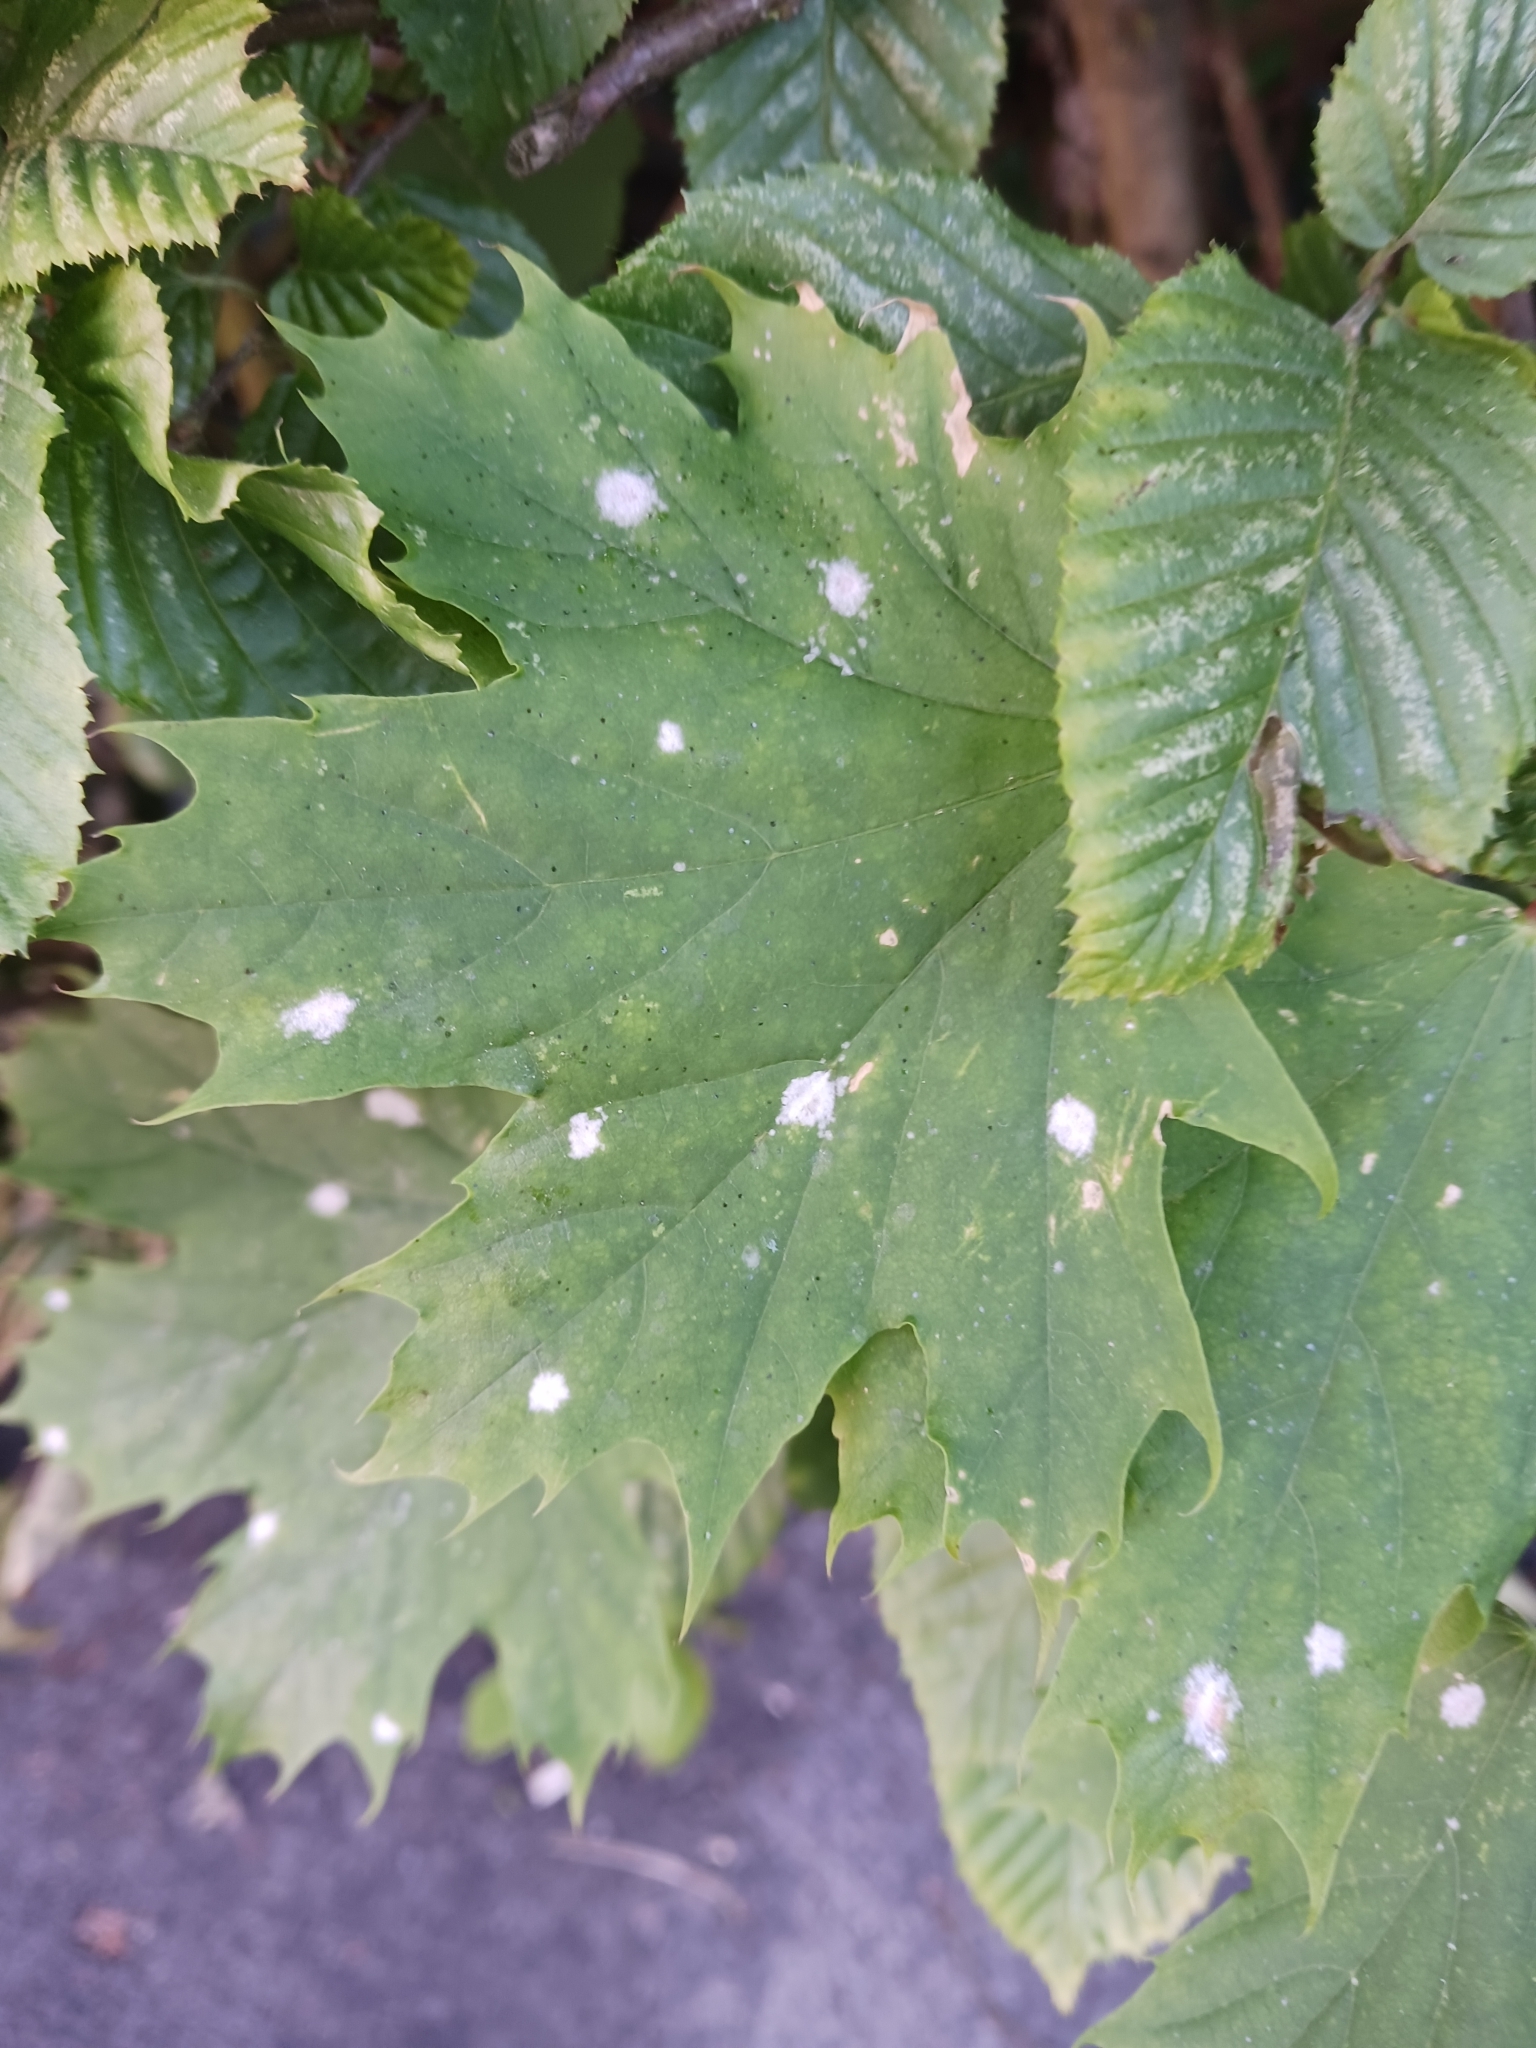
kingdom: Fungi
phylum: Ascomycota
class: Leotiomycetes
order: Helotiales
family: Erysiphaceae
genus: Sawadaea
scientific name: Sawadaea tulasnei
